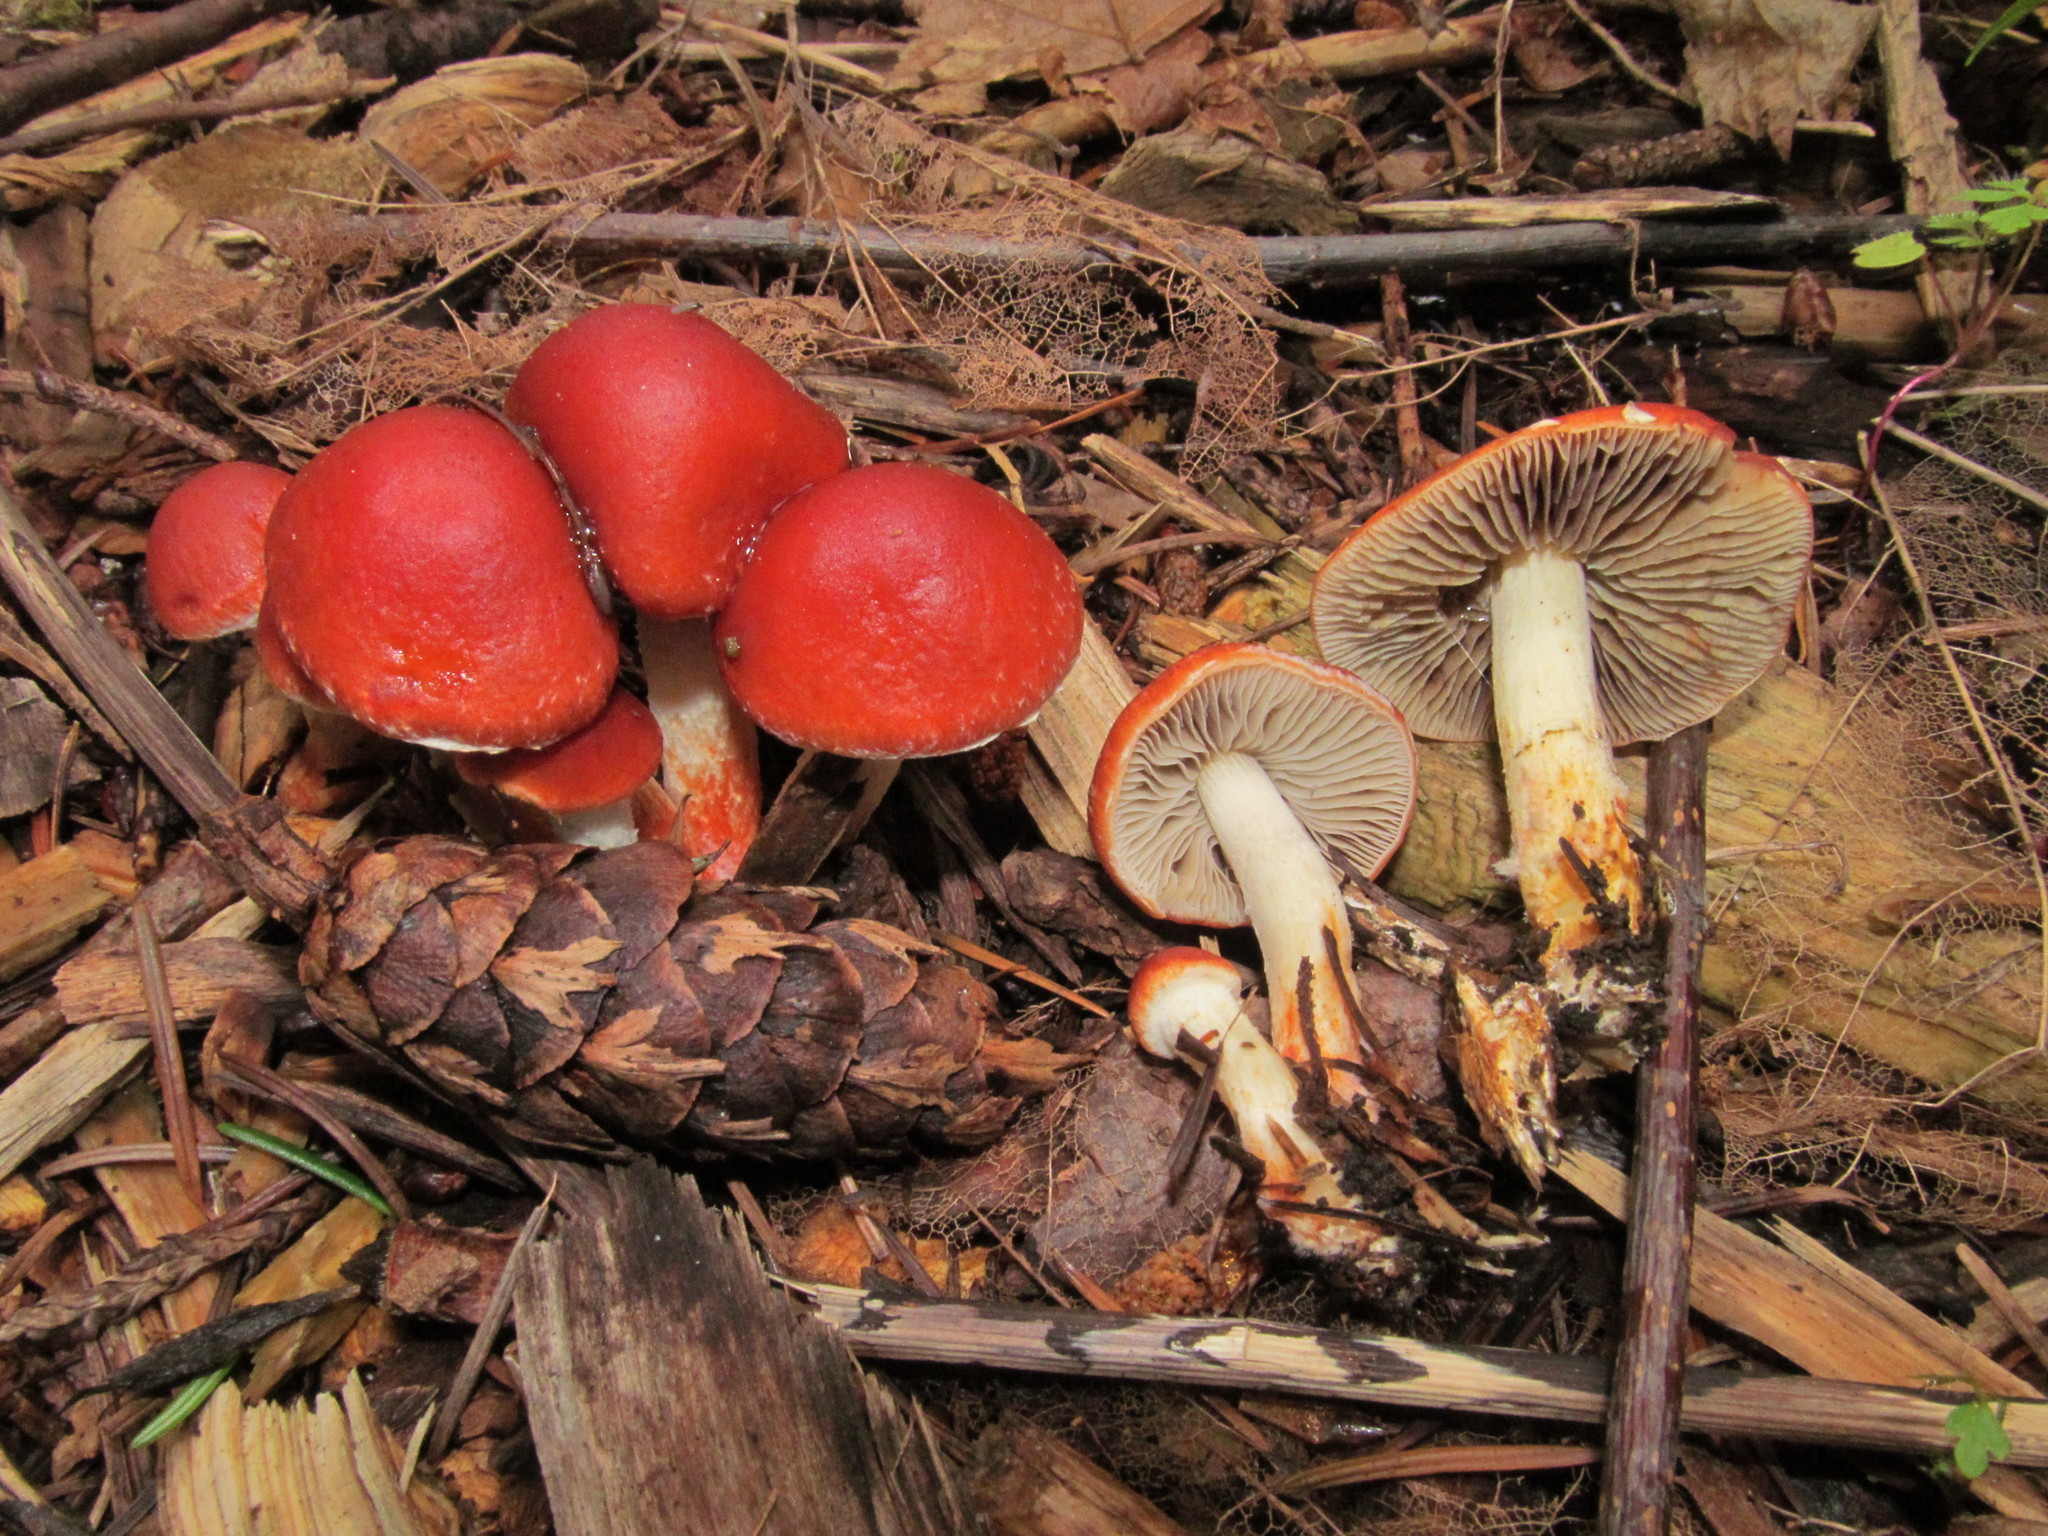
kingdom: Fungi
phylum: Basidiomycota
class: Agaricomycetes
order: Agaricales
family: Strophariaceae
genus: Leratiomyces
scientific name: Leratiomyces ceres
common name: Redlead roundhead
